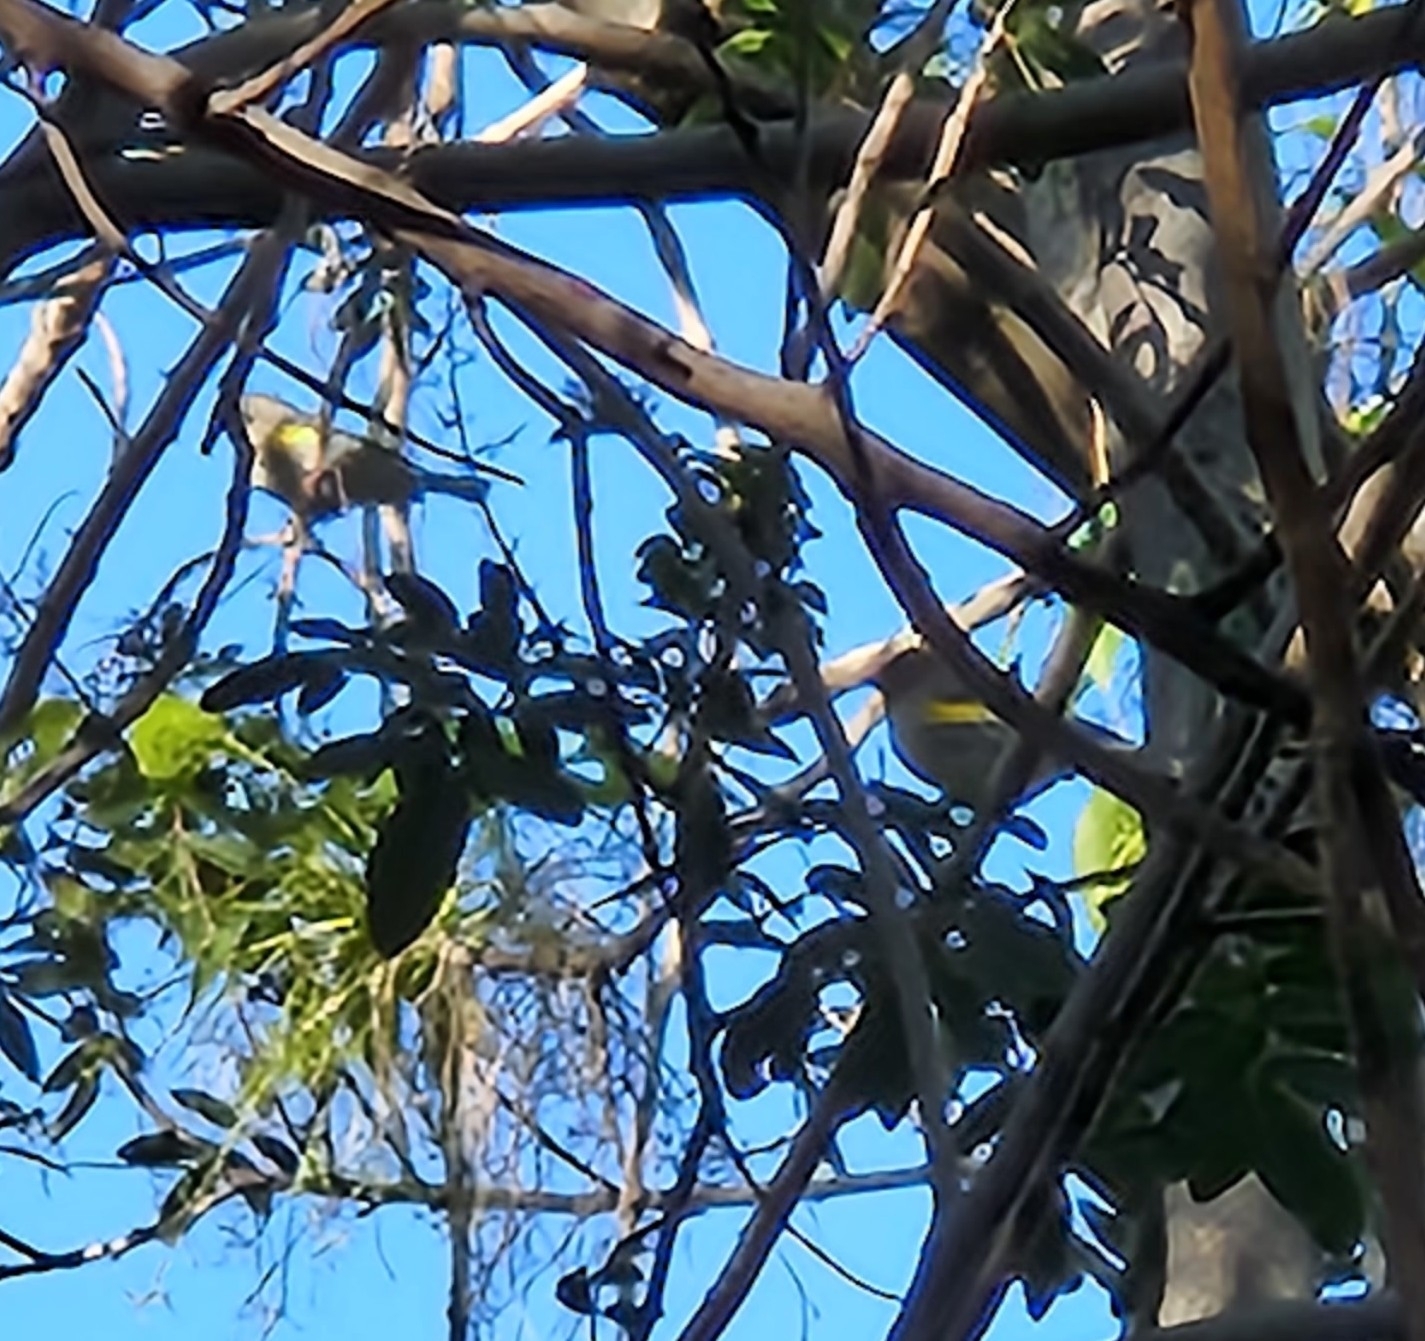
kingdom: Animalia
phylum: Chordata
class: Aves
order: Passeriformes
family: Parulidae
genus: Setophaga
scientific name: Setophaga coronata
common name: Myrtle warbler
